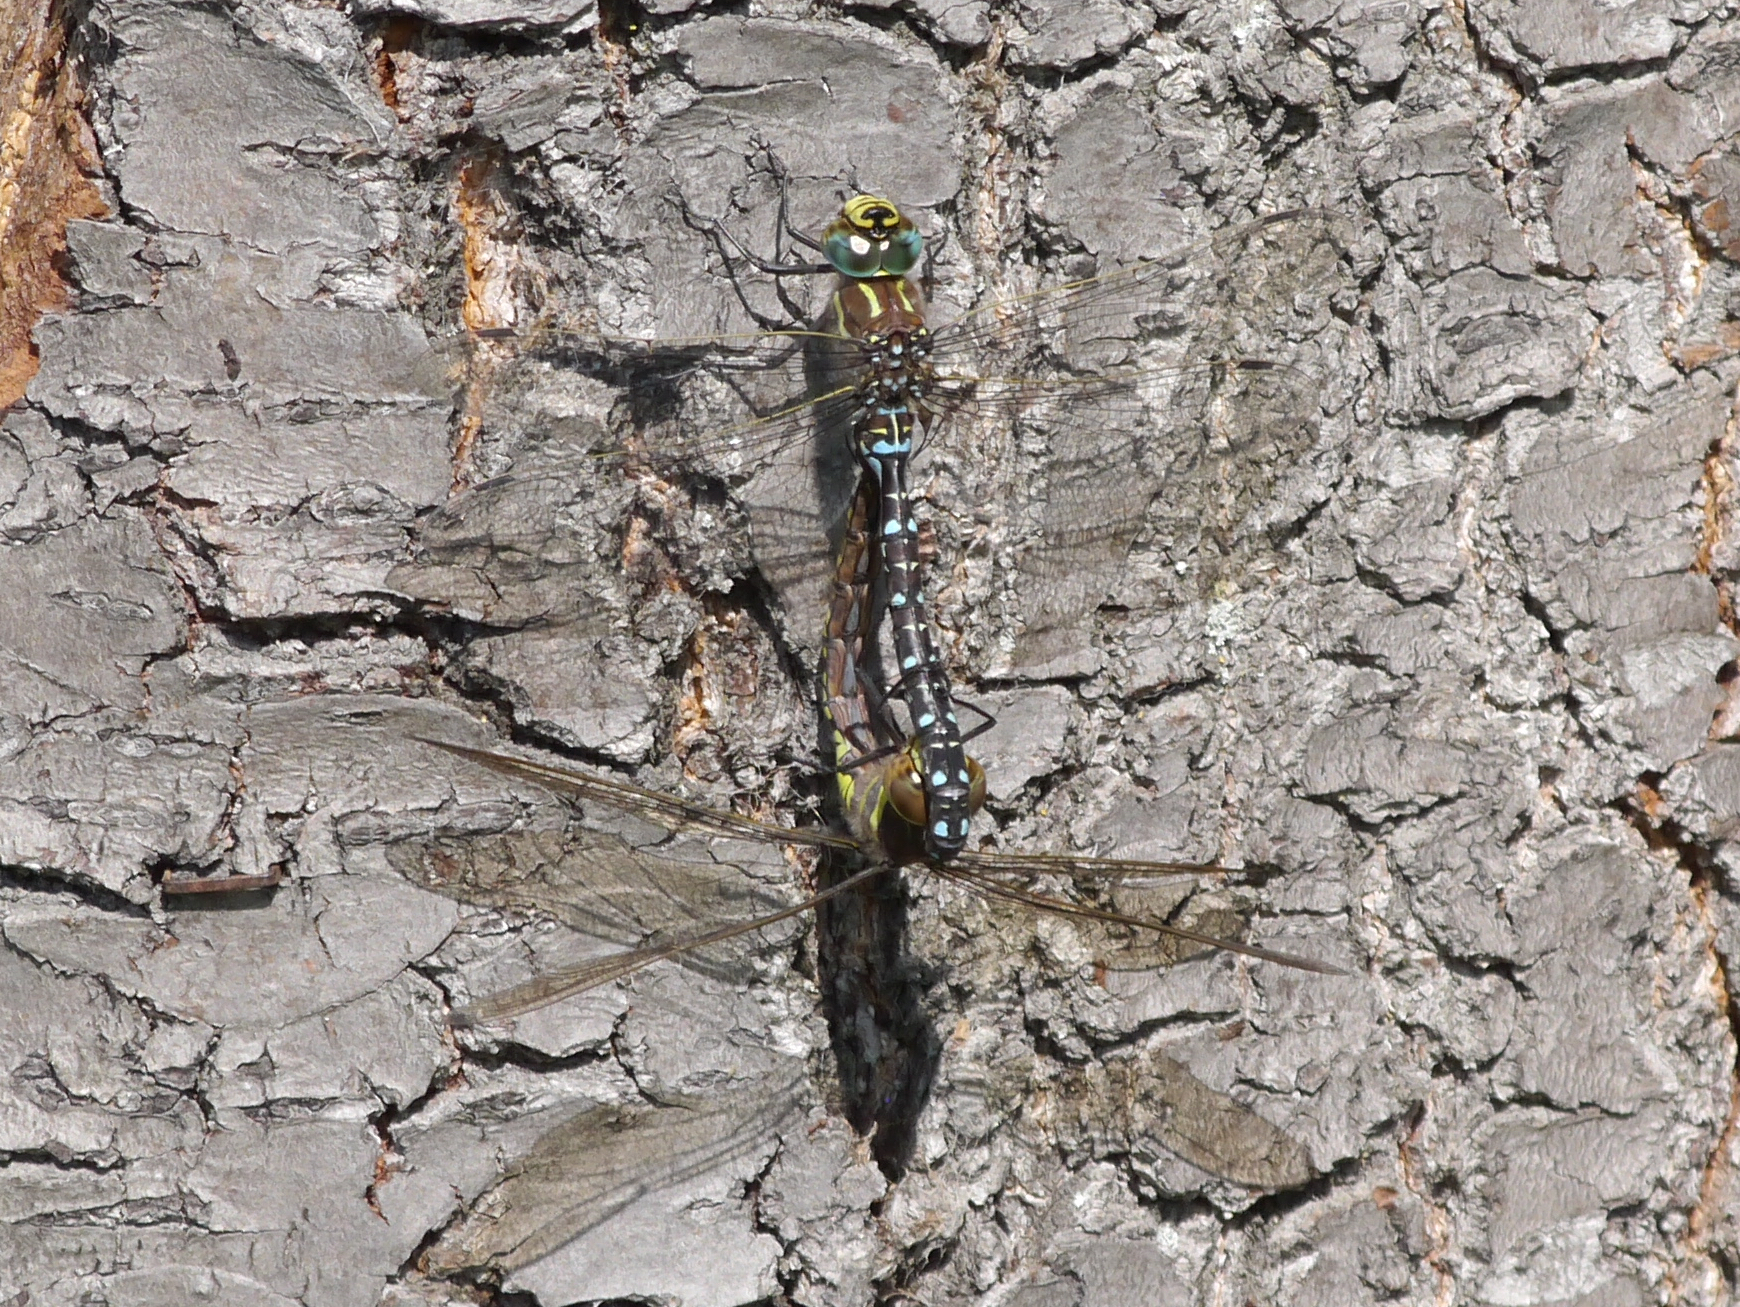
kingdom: Animalia
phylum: Arthropoda
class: Insecta
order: Odonata
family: Aeshnidae
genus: Aeshna
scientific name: Aeshna juncea
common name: Moorland hawker
